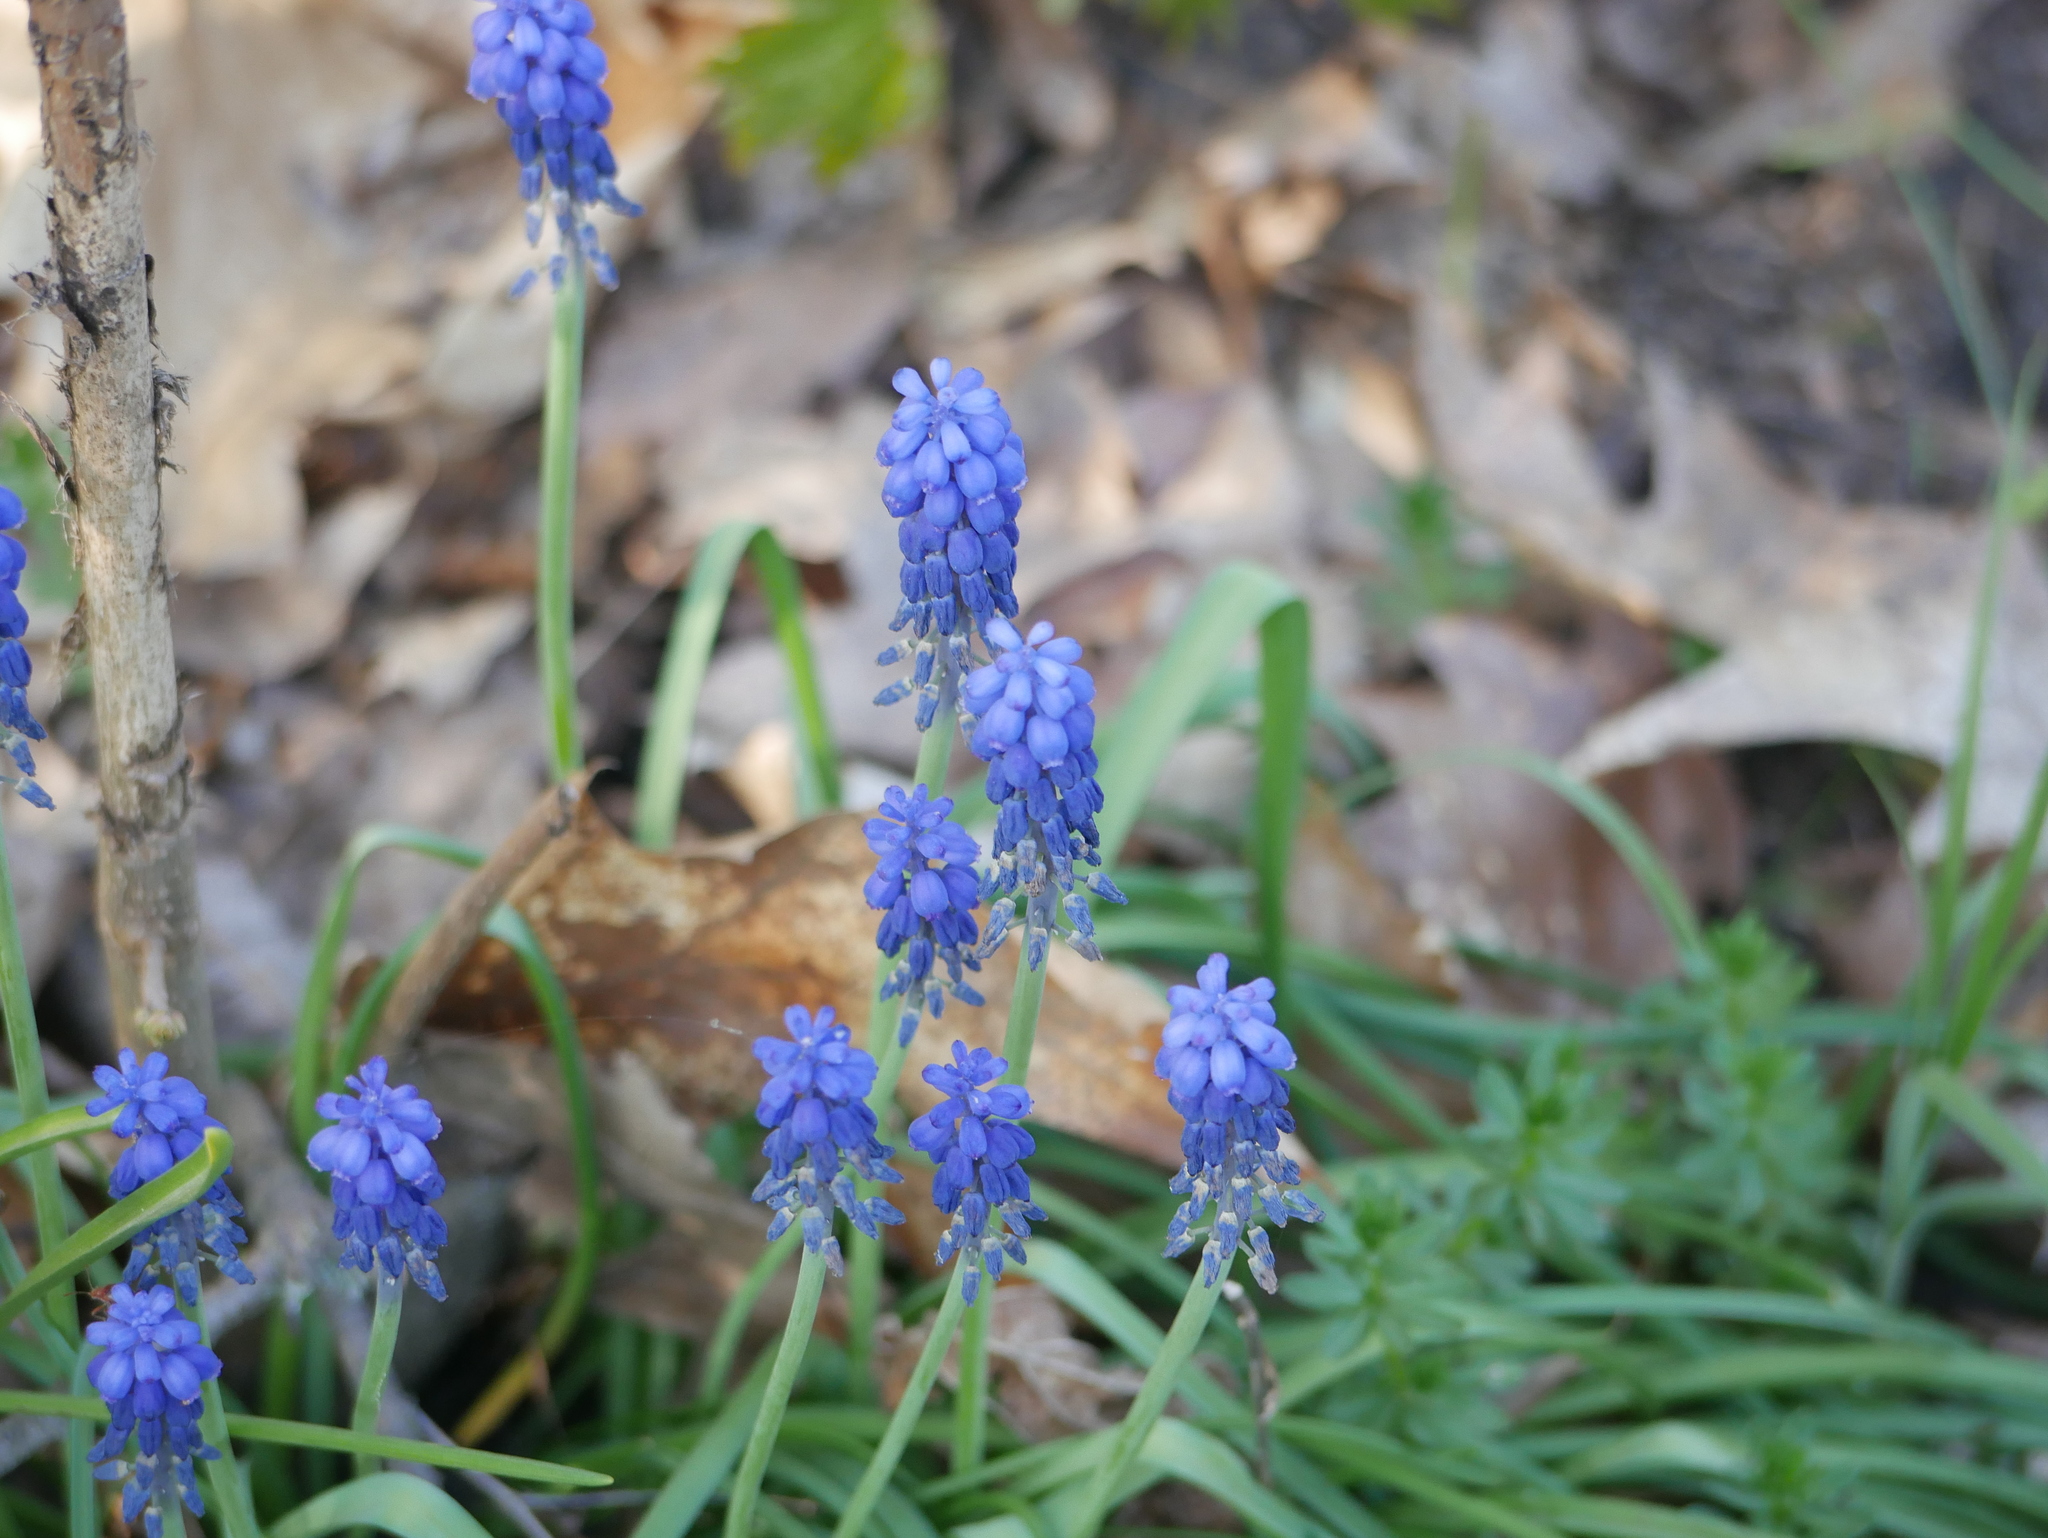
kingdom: Plantae
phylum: Tracheophyta
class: Liliopsida
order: Asparagales
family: Asparagaceae
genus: Muscari
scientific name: Muscari botryoides
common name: Compact grape-hyacinth
